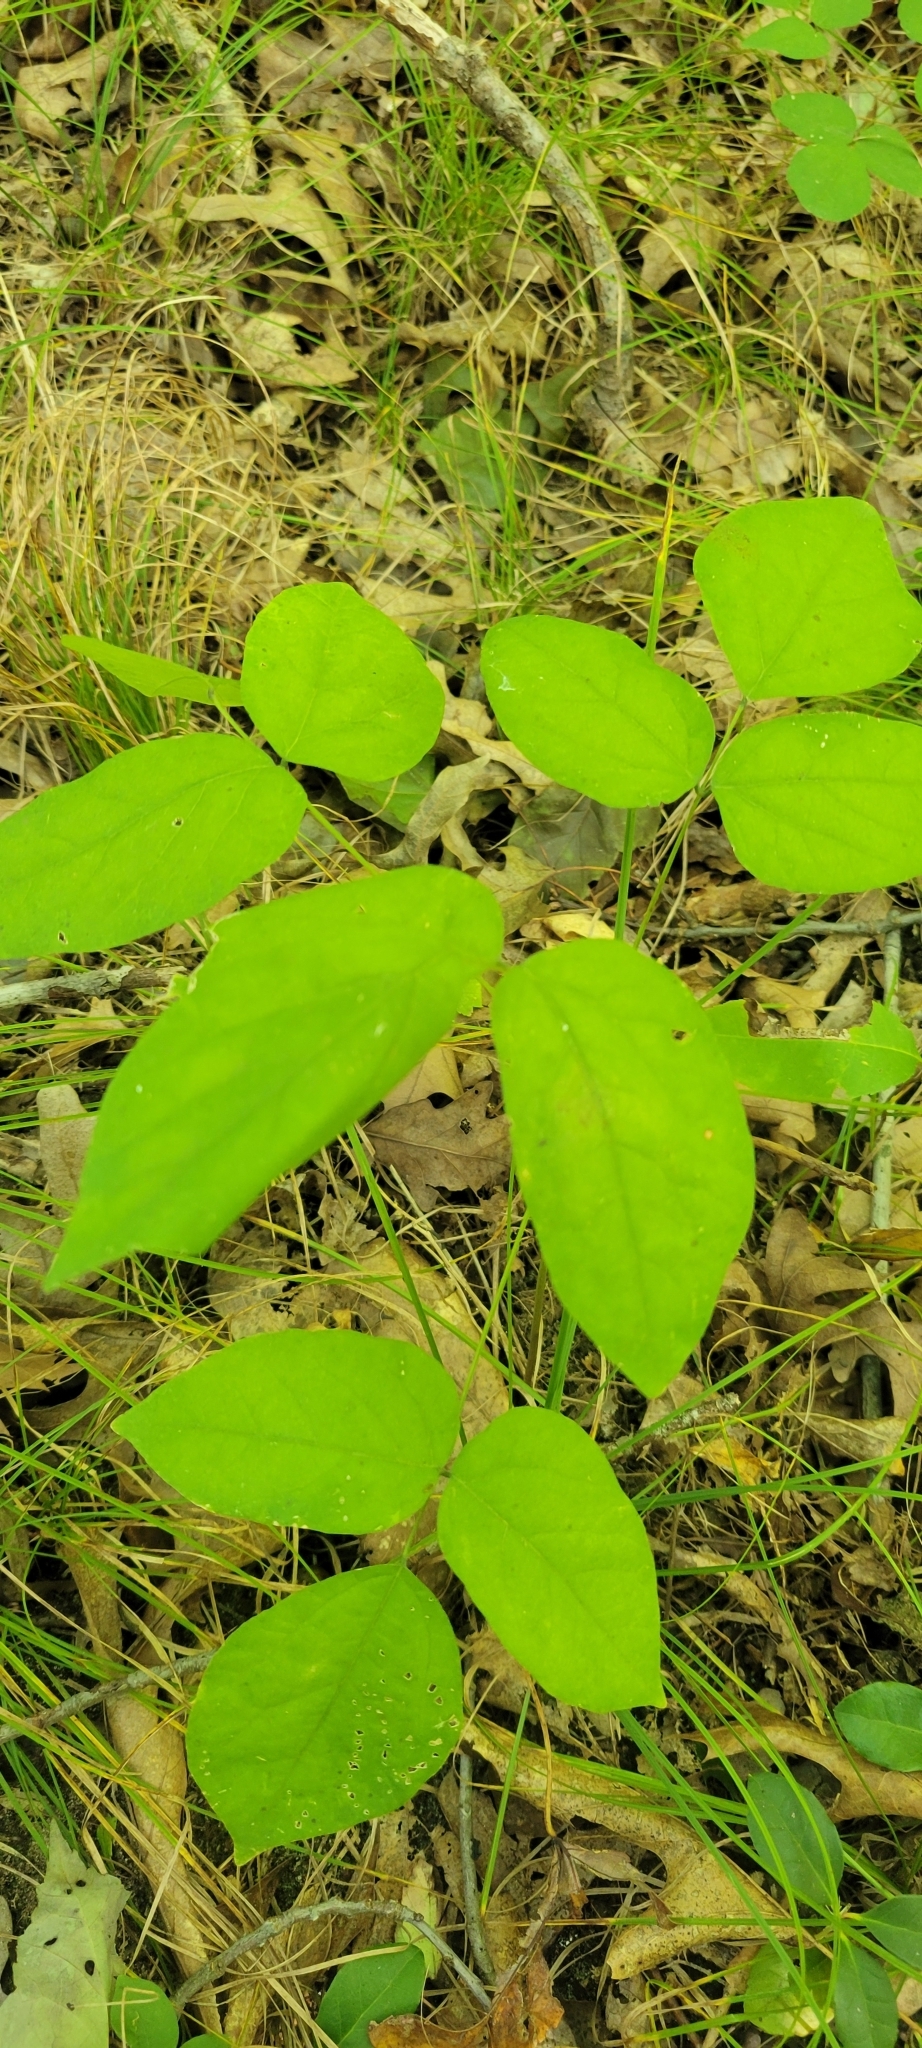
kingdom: Plantae
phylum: Tracheophyta
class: Magnoliopsida
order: Fabales
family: Fabaceae
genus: Hylodesmum
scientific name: Hylodesmum nudiflorum
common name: Bare-stemmed tick-trefoil
